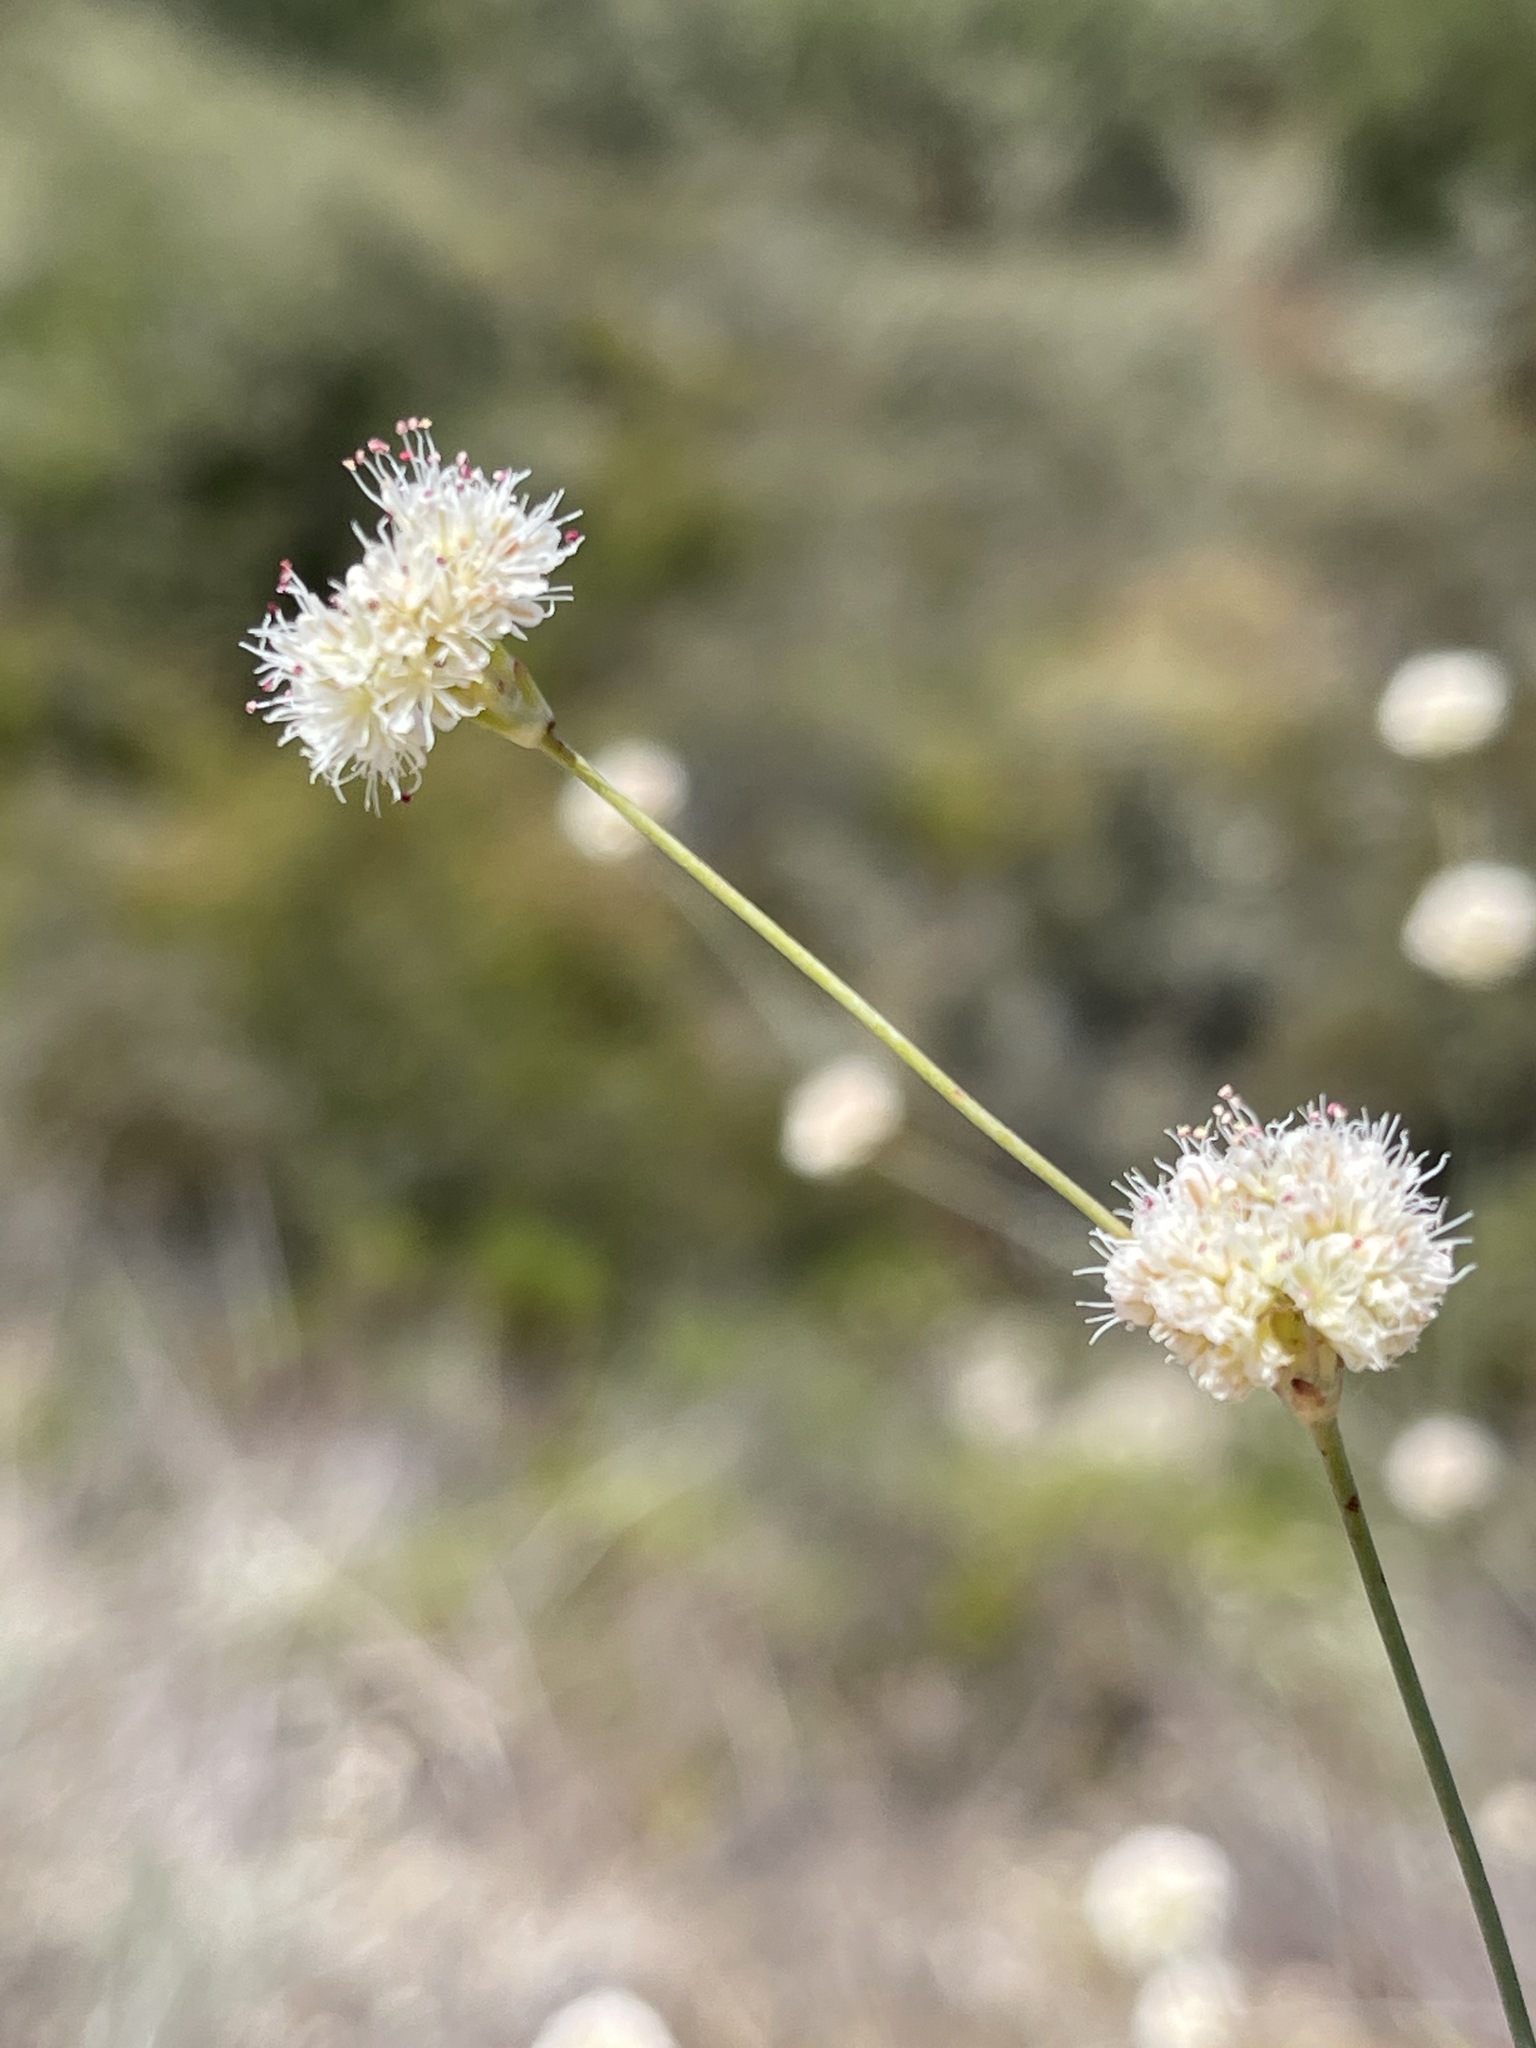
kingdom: Plantae
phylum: Tracheophyta
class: Magnoliopsida
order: Caryophyllales
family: Polygonaceae
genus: Eriogonum
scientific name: Eriogonum nudum
